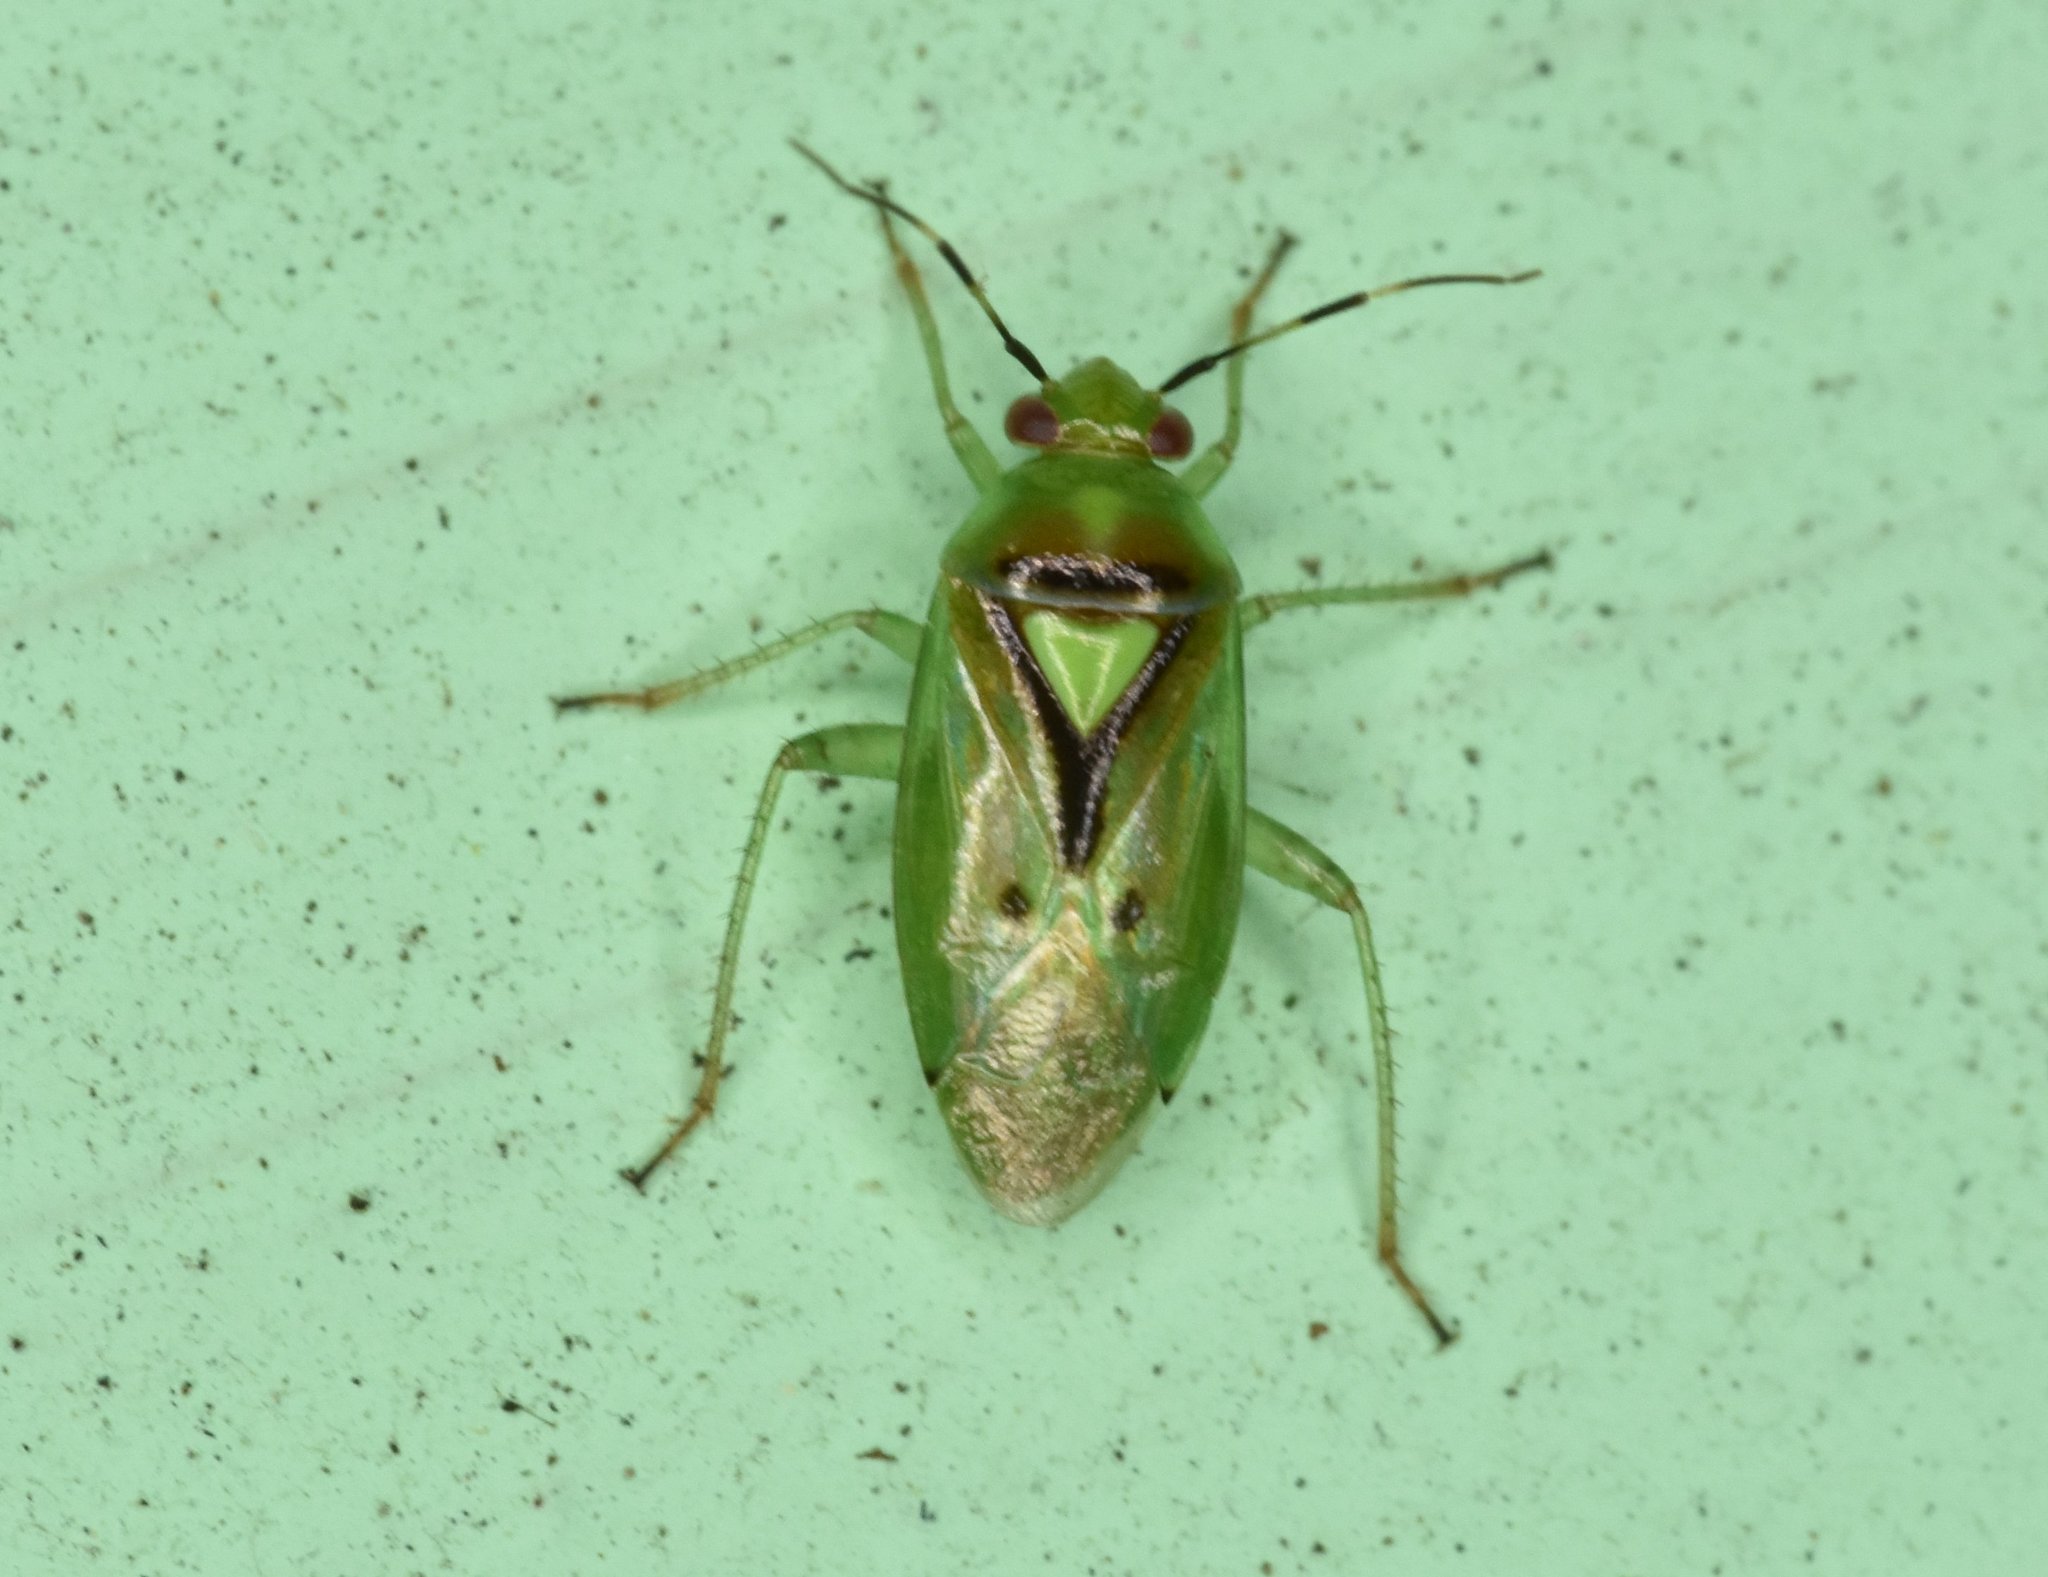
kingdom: Animalia
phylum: Arthropoda
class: Insecta
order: Hemiptera
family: Miridae
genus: Proba
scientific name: Proba distanti
